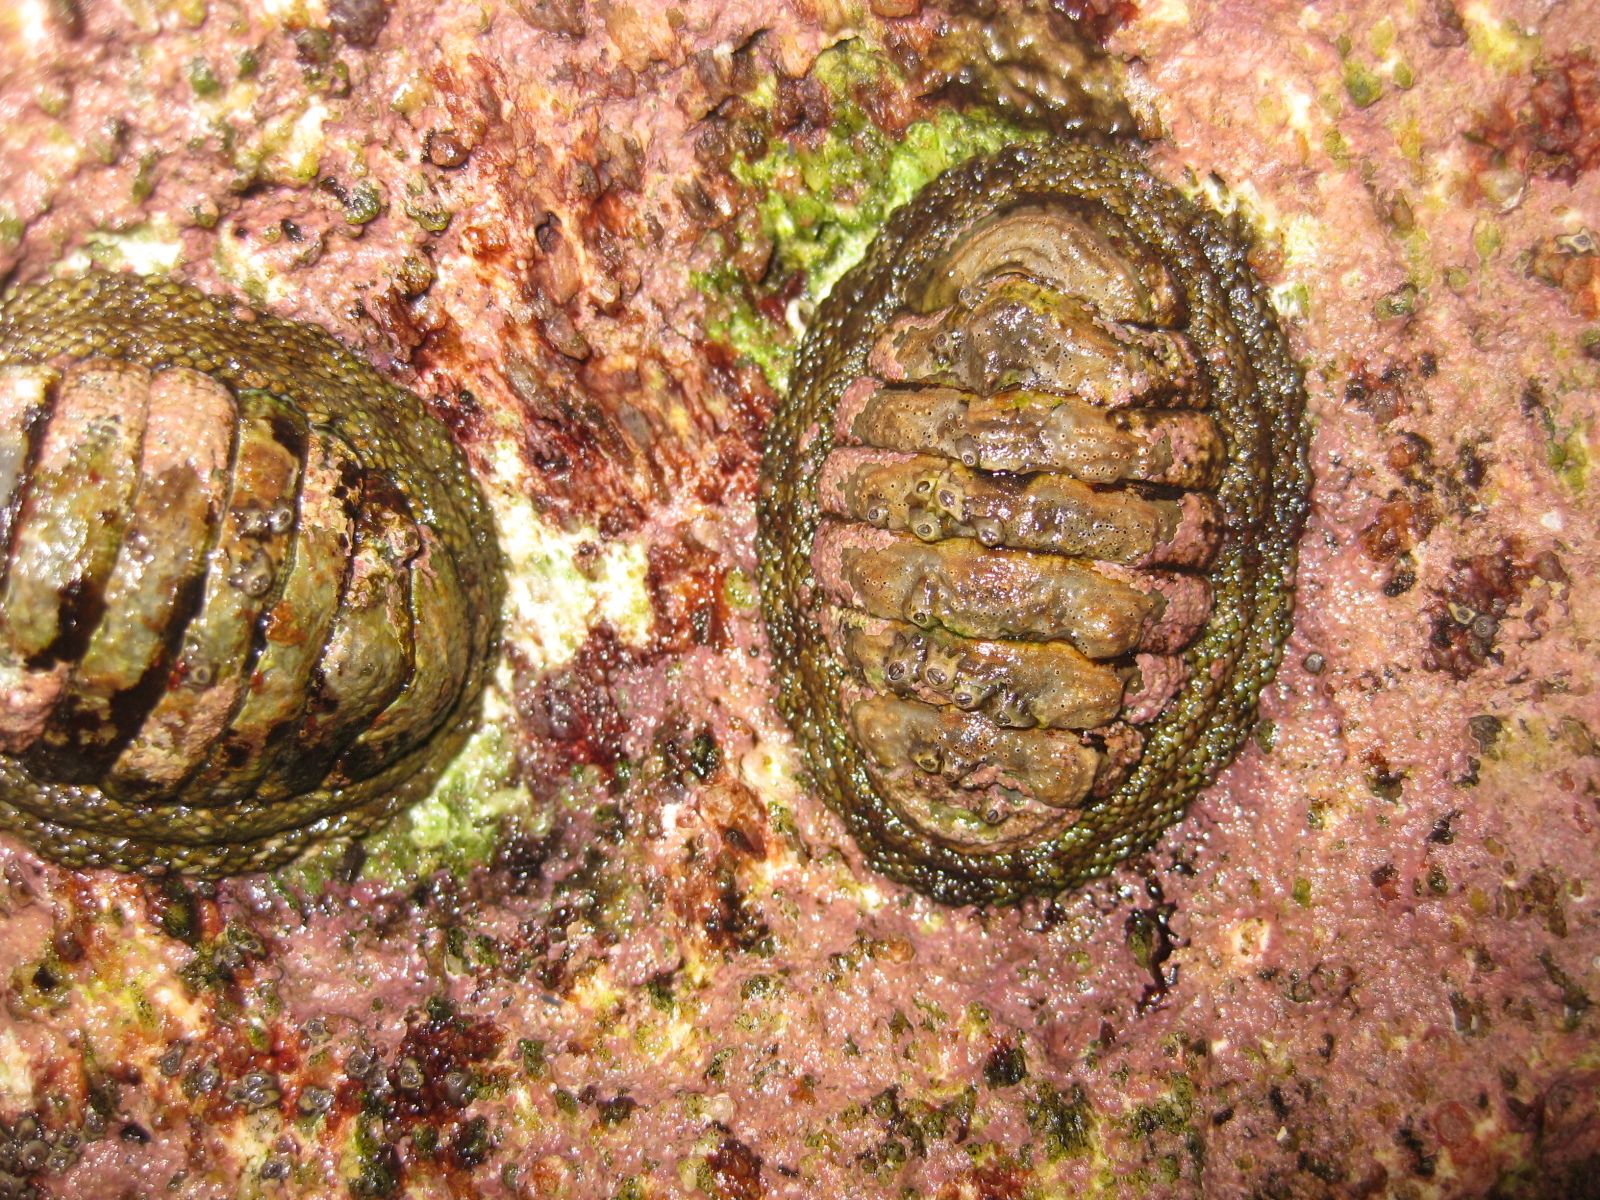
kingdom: Animalia
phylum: Mollusca
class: Polyplacophora
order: Chitonida
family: Chitonidae
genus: Sypharochiton
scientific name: Sypharochiton pelliserpentis
